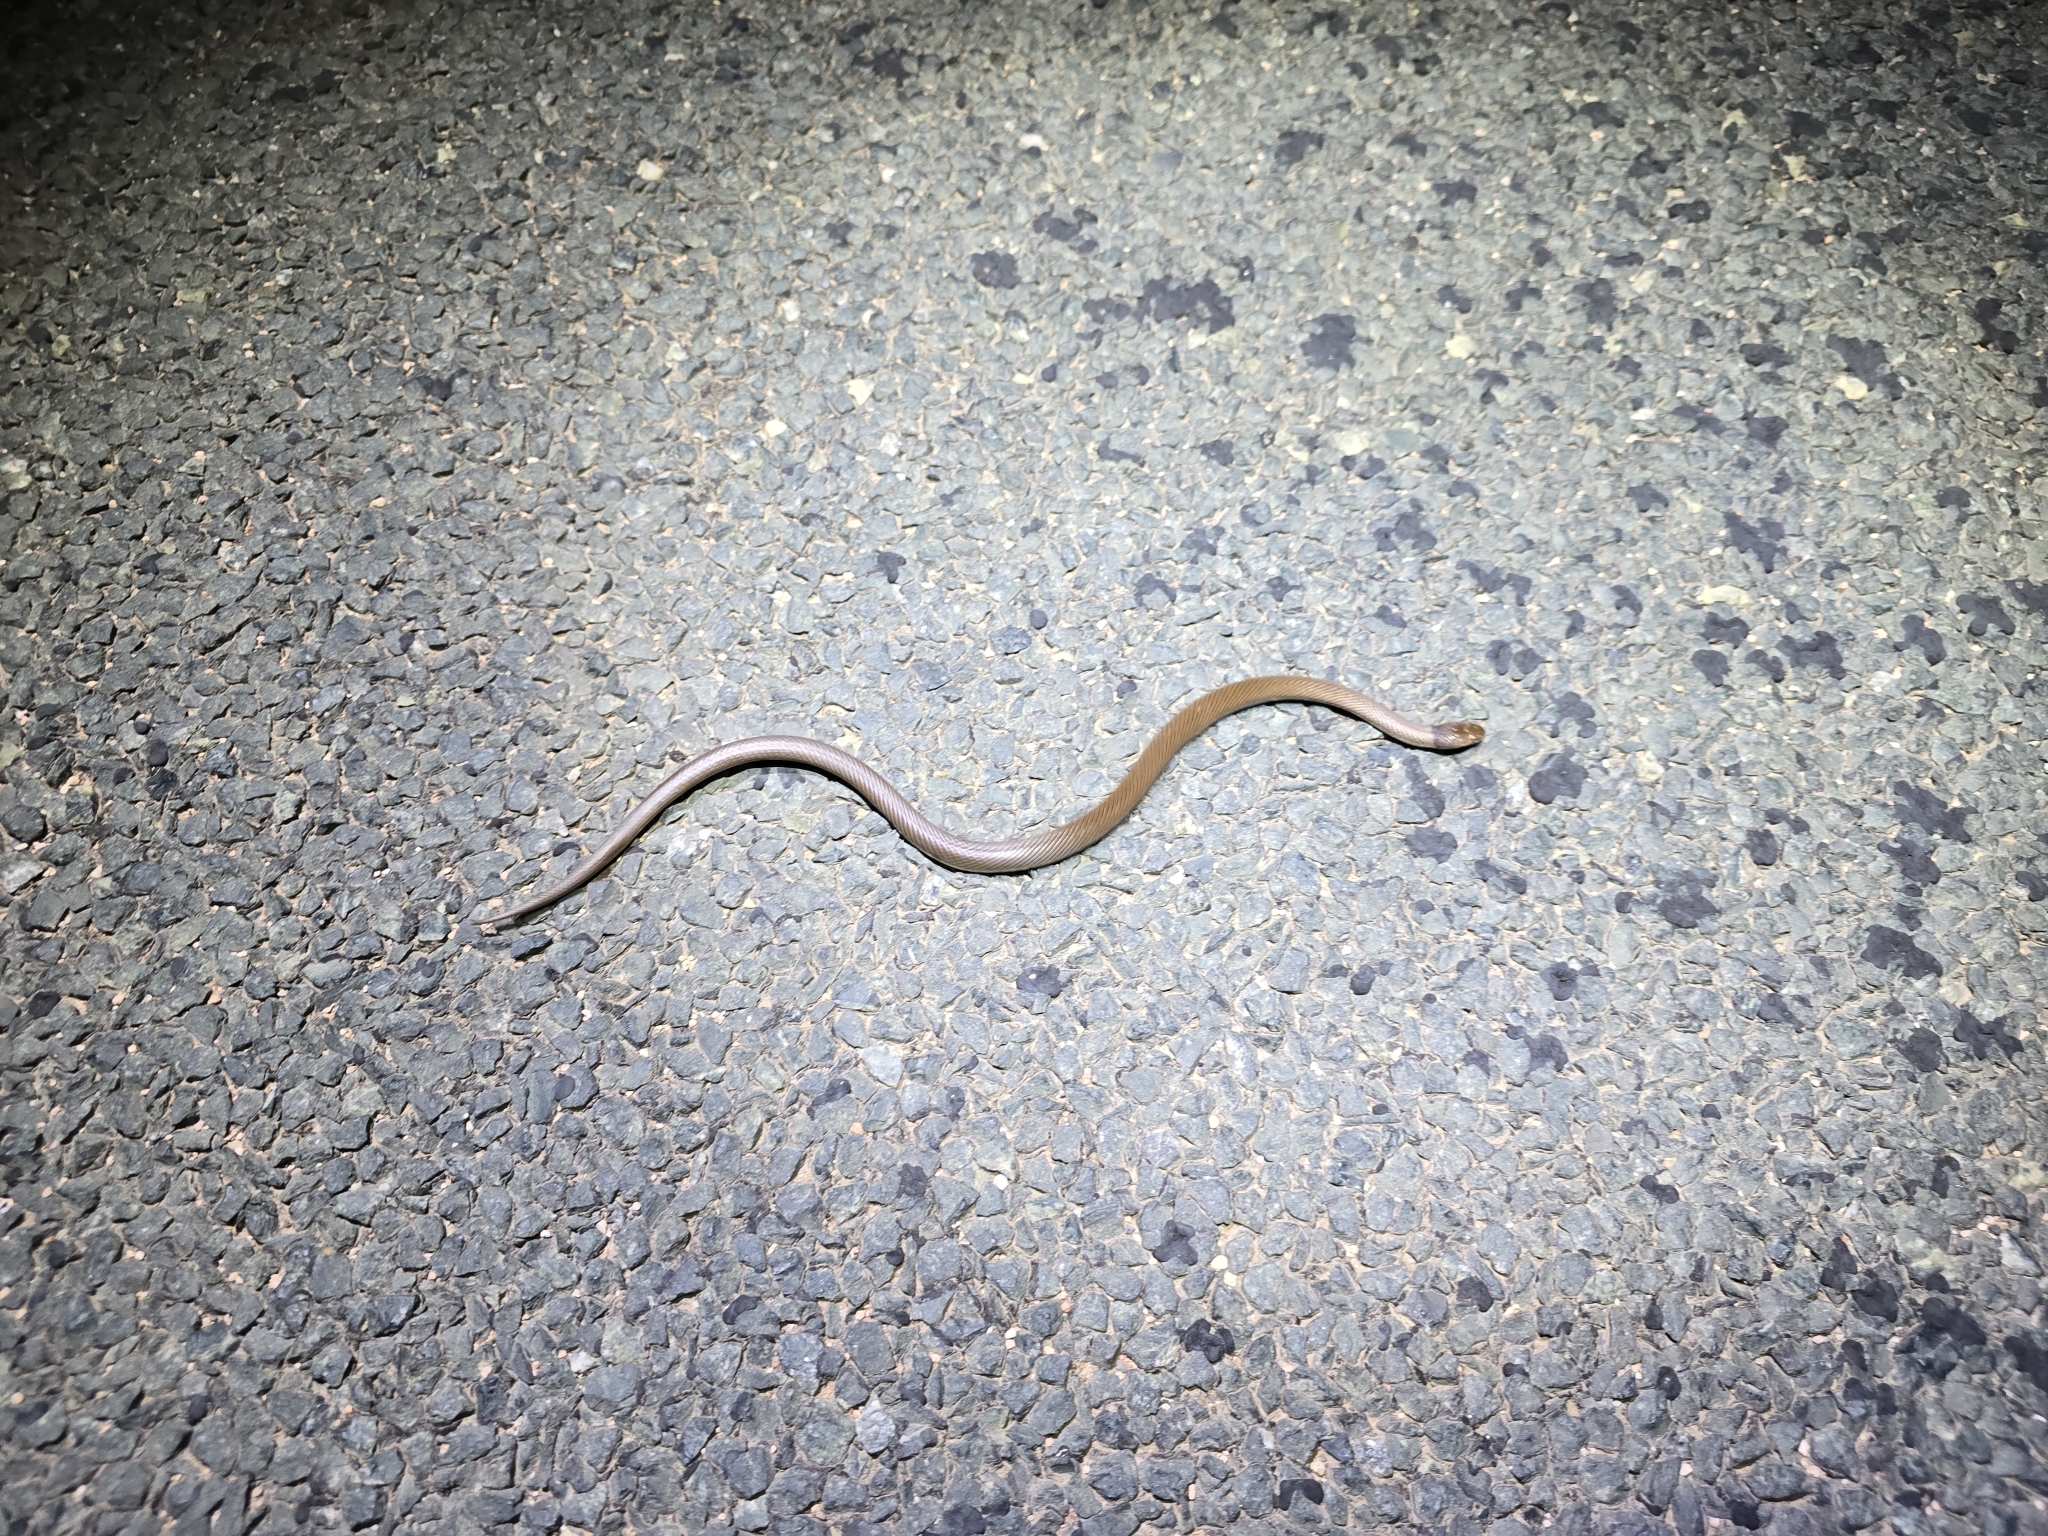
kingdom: Animalia
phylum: Chordata
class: Squamata
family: Elapidae
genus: Suta
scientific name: Suta suta
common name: Curl snake
